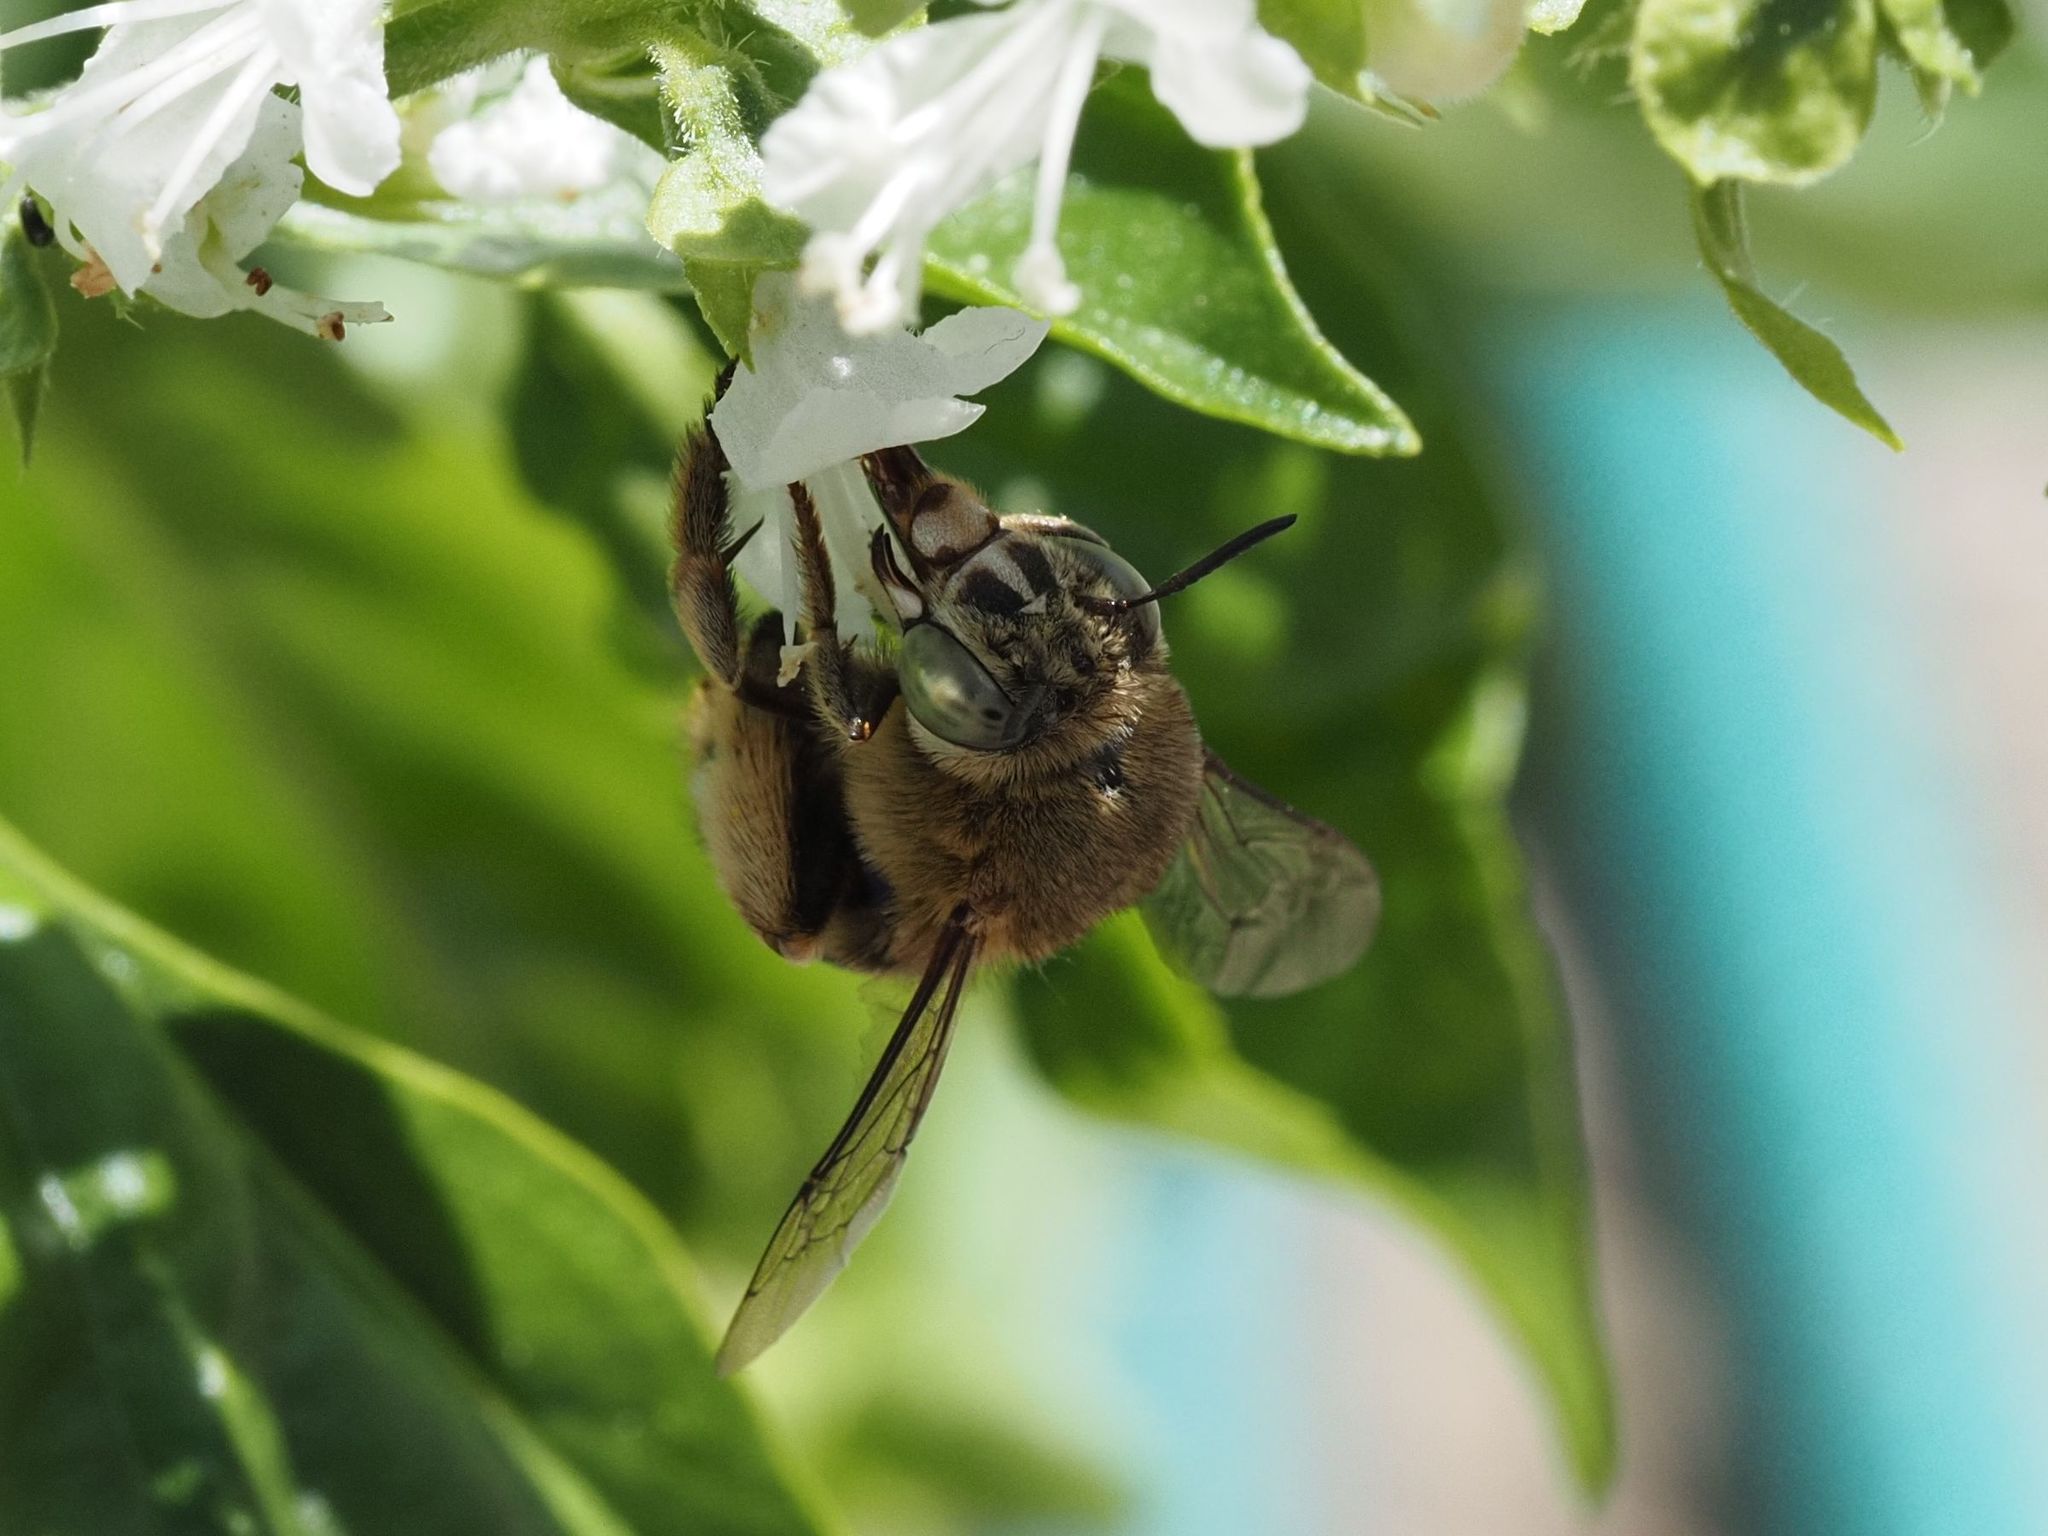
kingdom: Animalia
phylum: Arthropoda
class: Insecta
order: Hymenoptera
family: Apidae
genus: Amegilla
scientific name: Amegilla garrula
